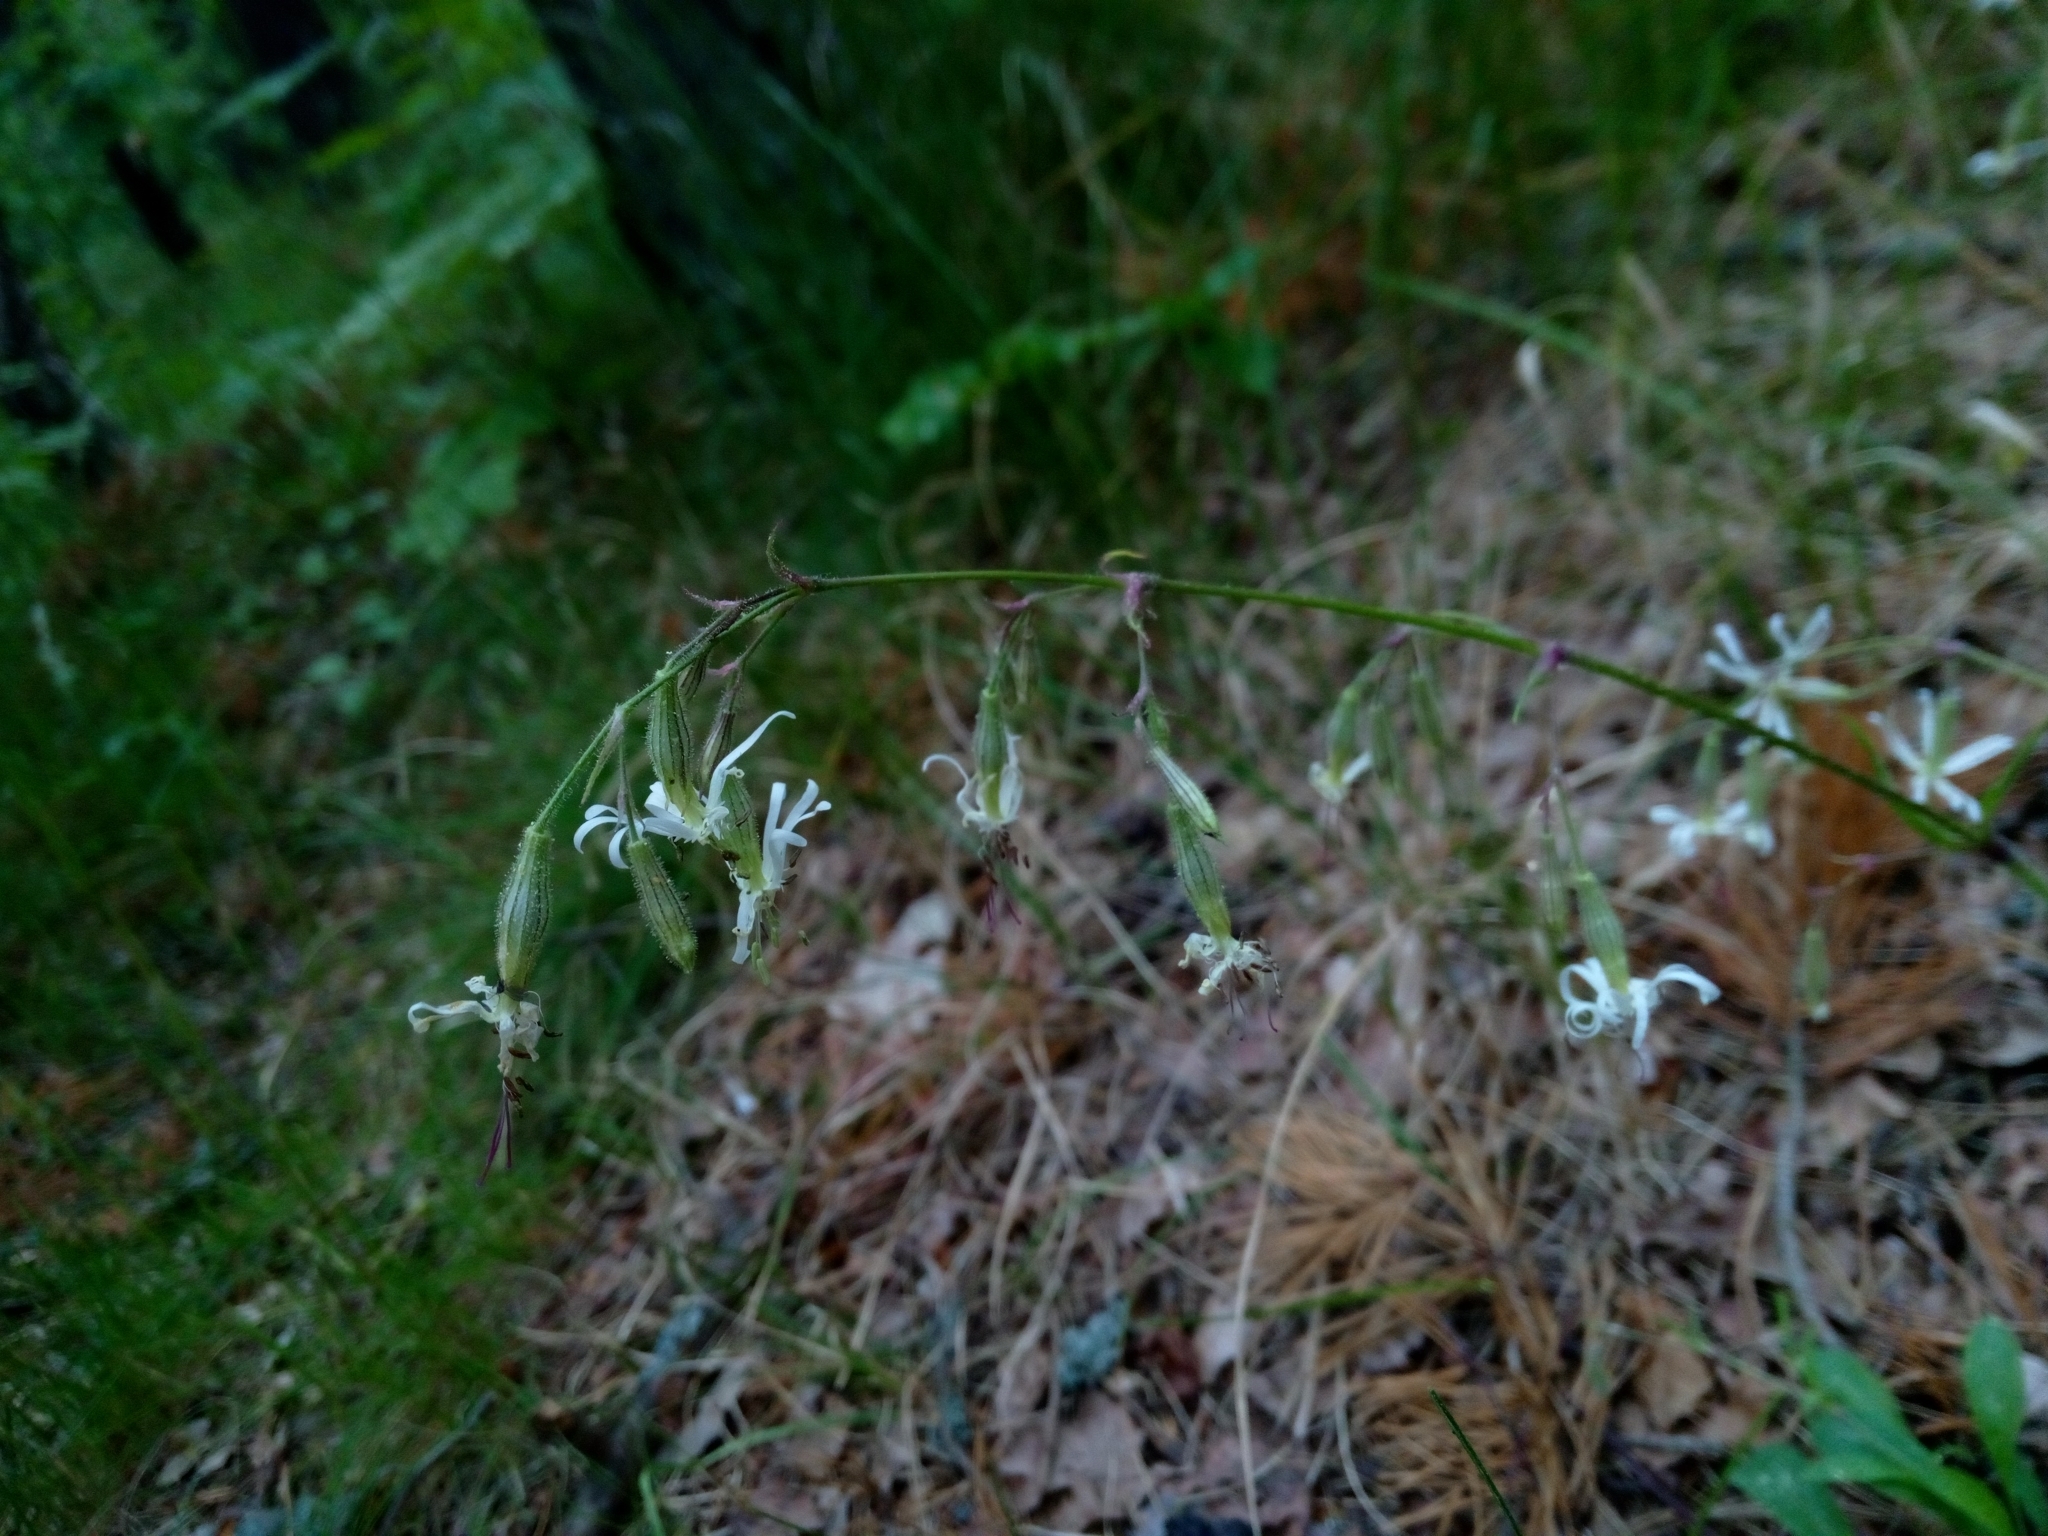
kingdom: Plantae
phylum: Tracheophyta
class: Magnoliopsida
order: Caryophyllales
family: Caryophyllaceae
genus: Silene
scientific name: Silene nutans
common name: Nottingham catchfly
